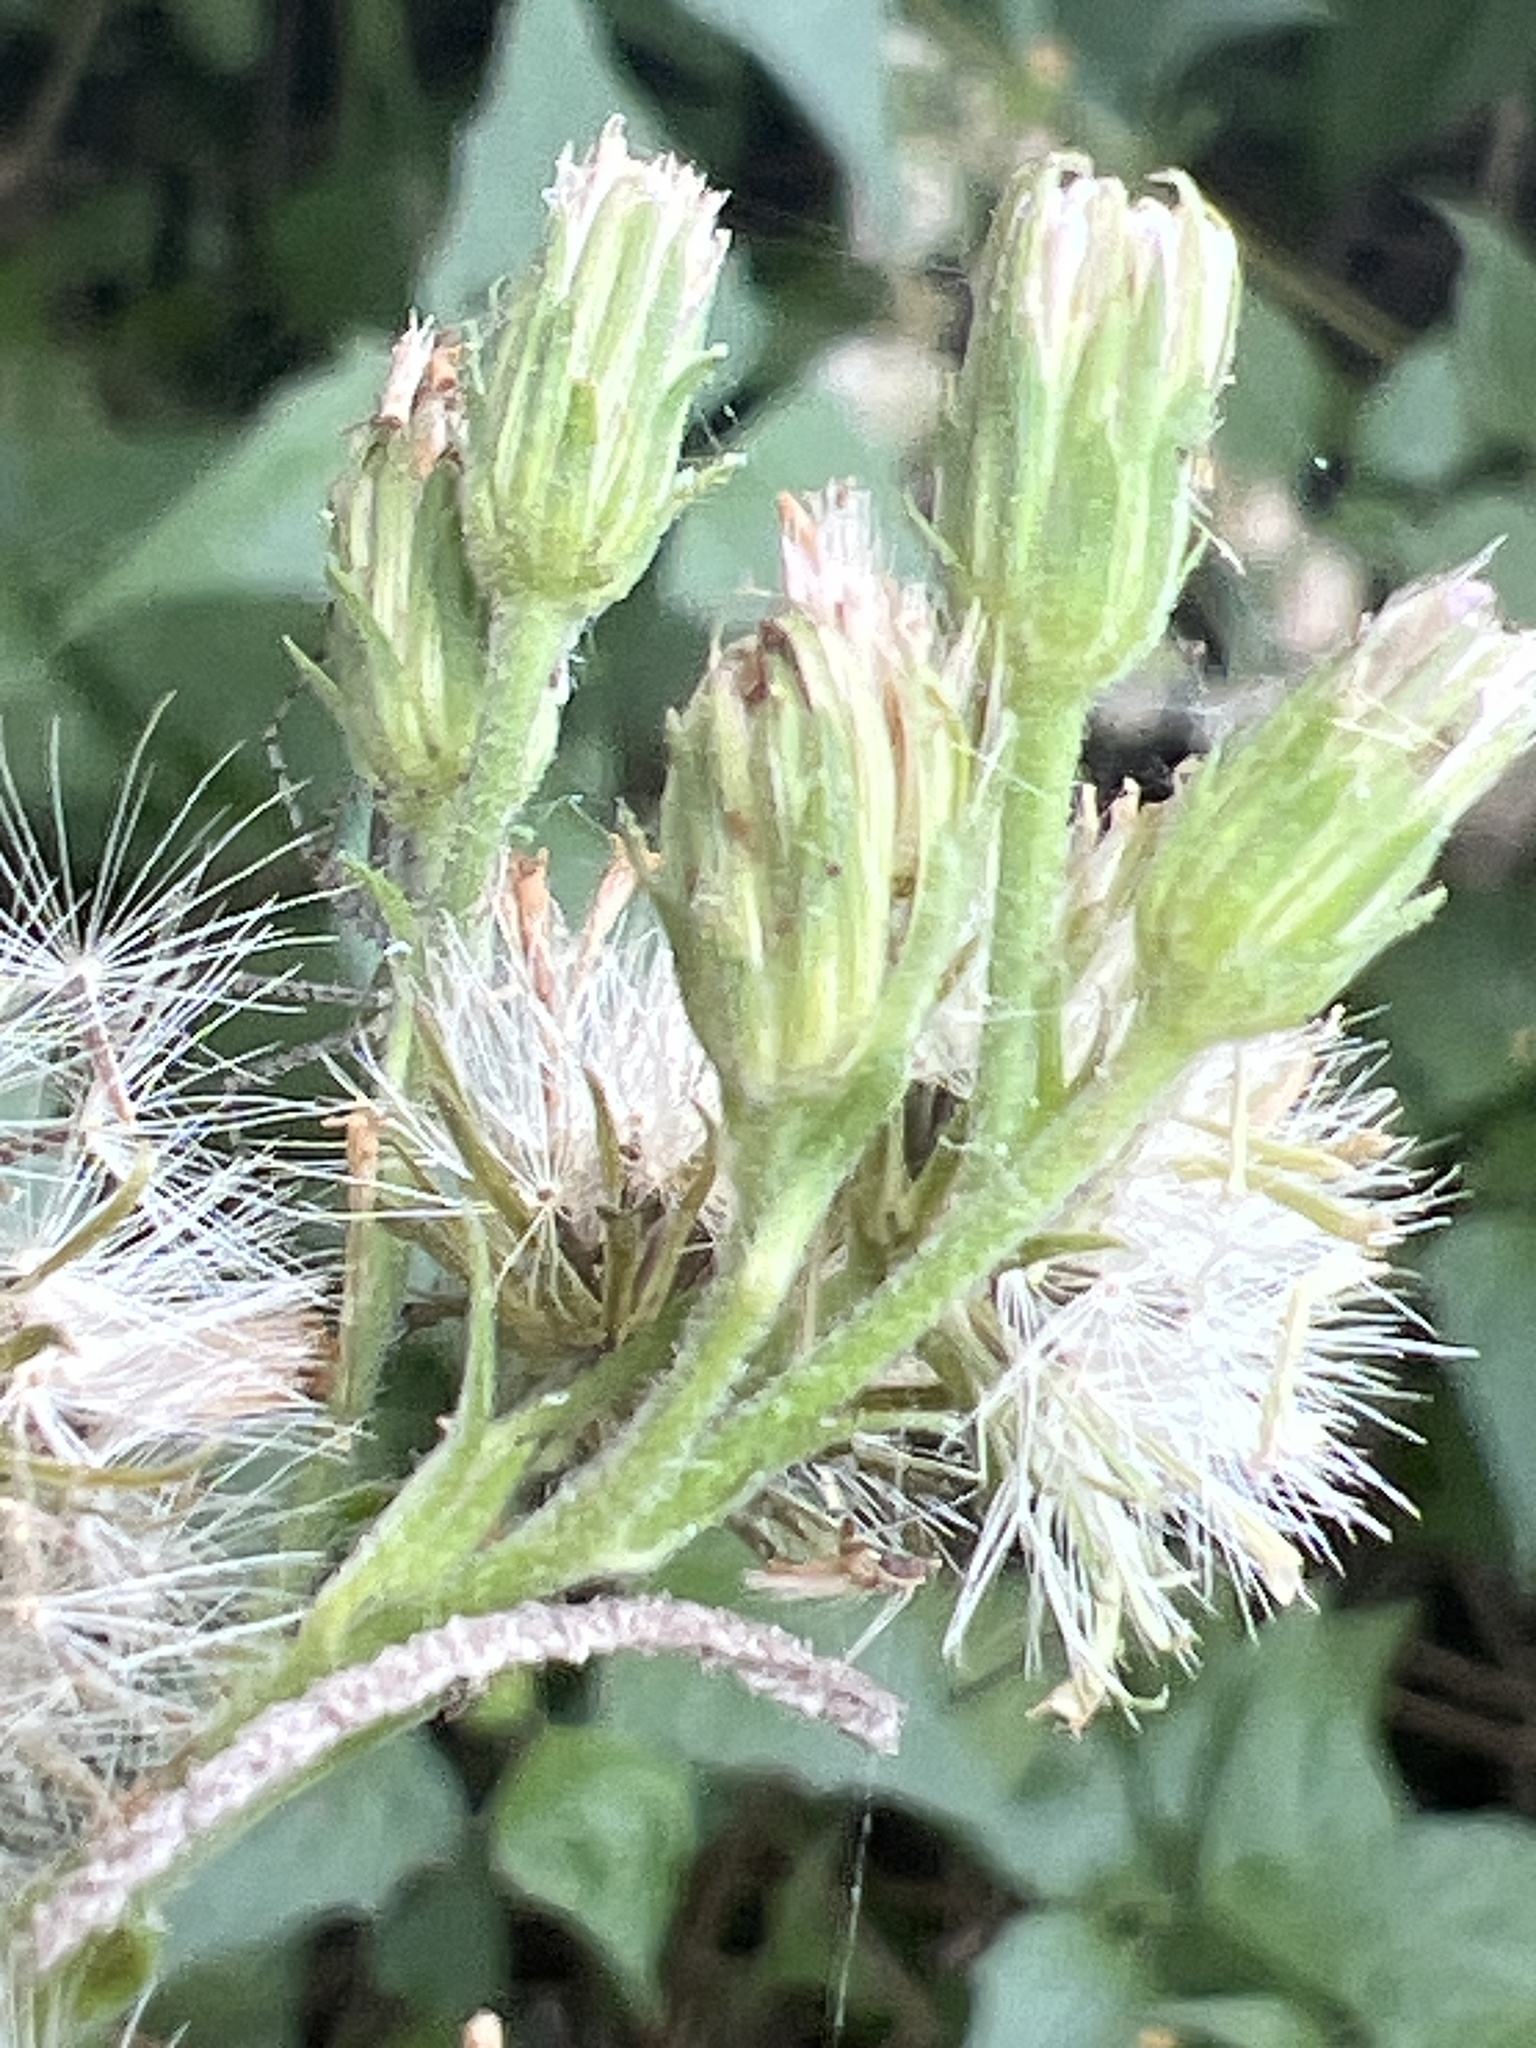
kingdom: Plantae
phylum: Tracheophyta
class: Magnoliopsida
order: Asterales
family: Asteraceae
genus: Tamaulipa
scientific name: Tamaulipa azurea
